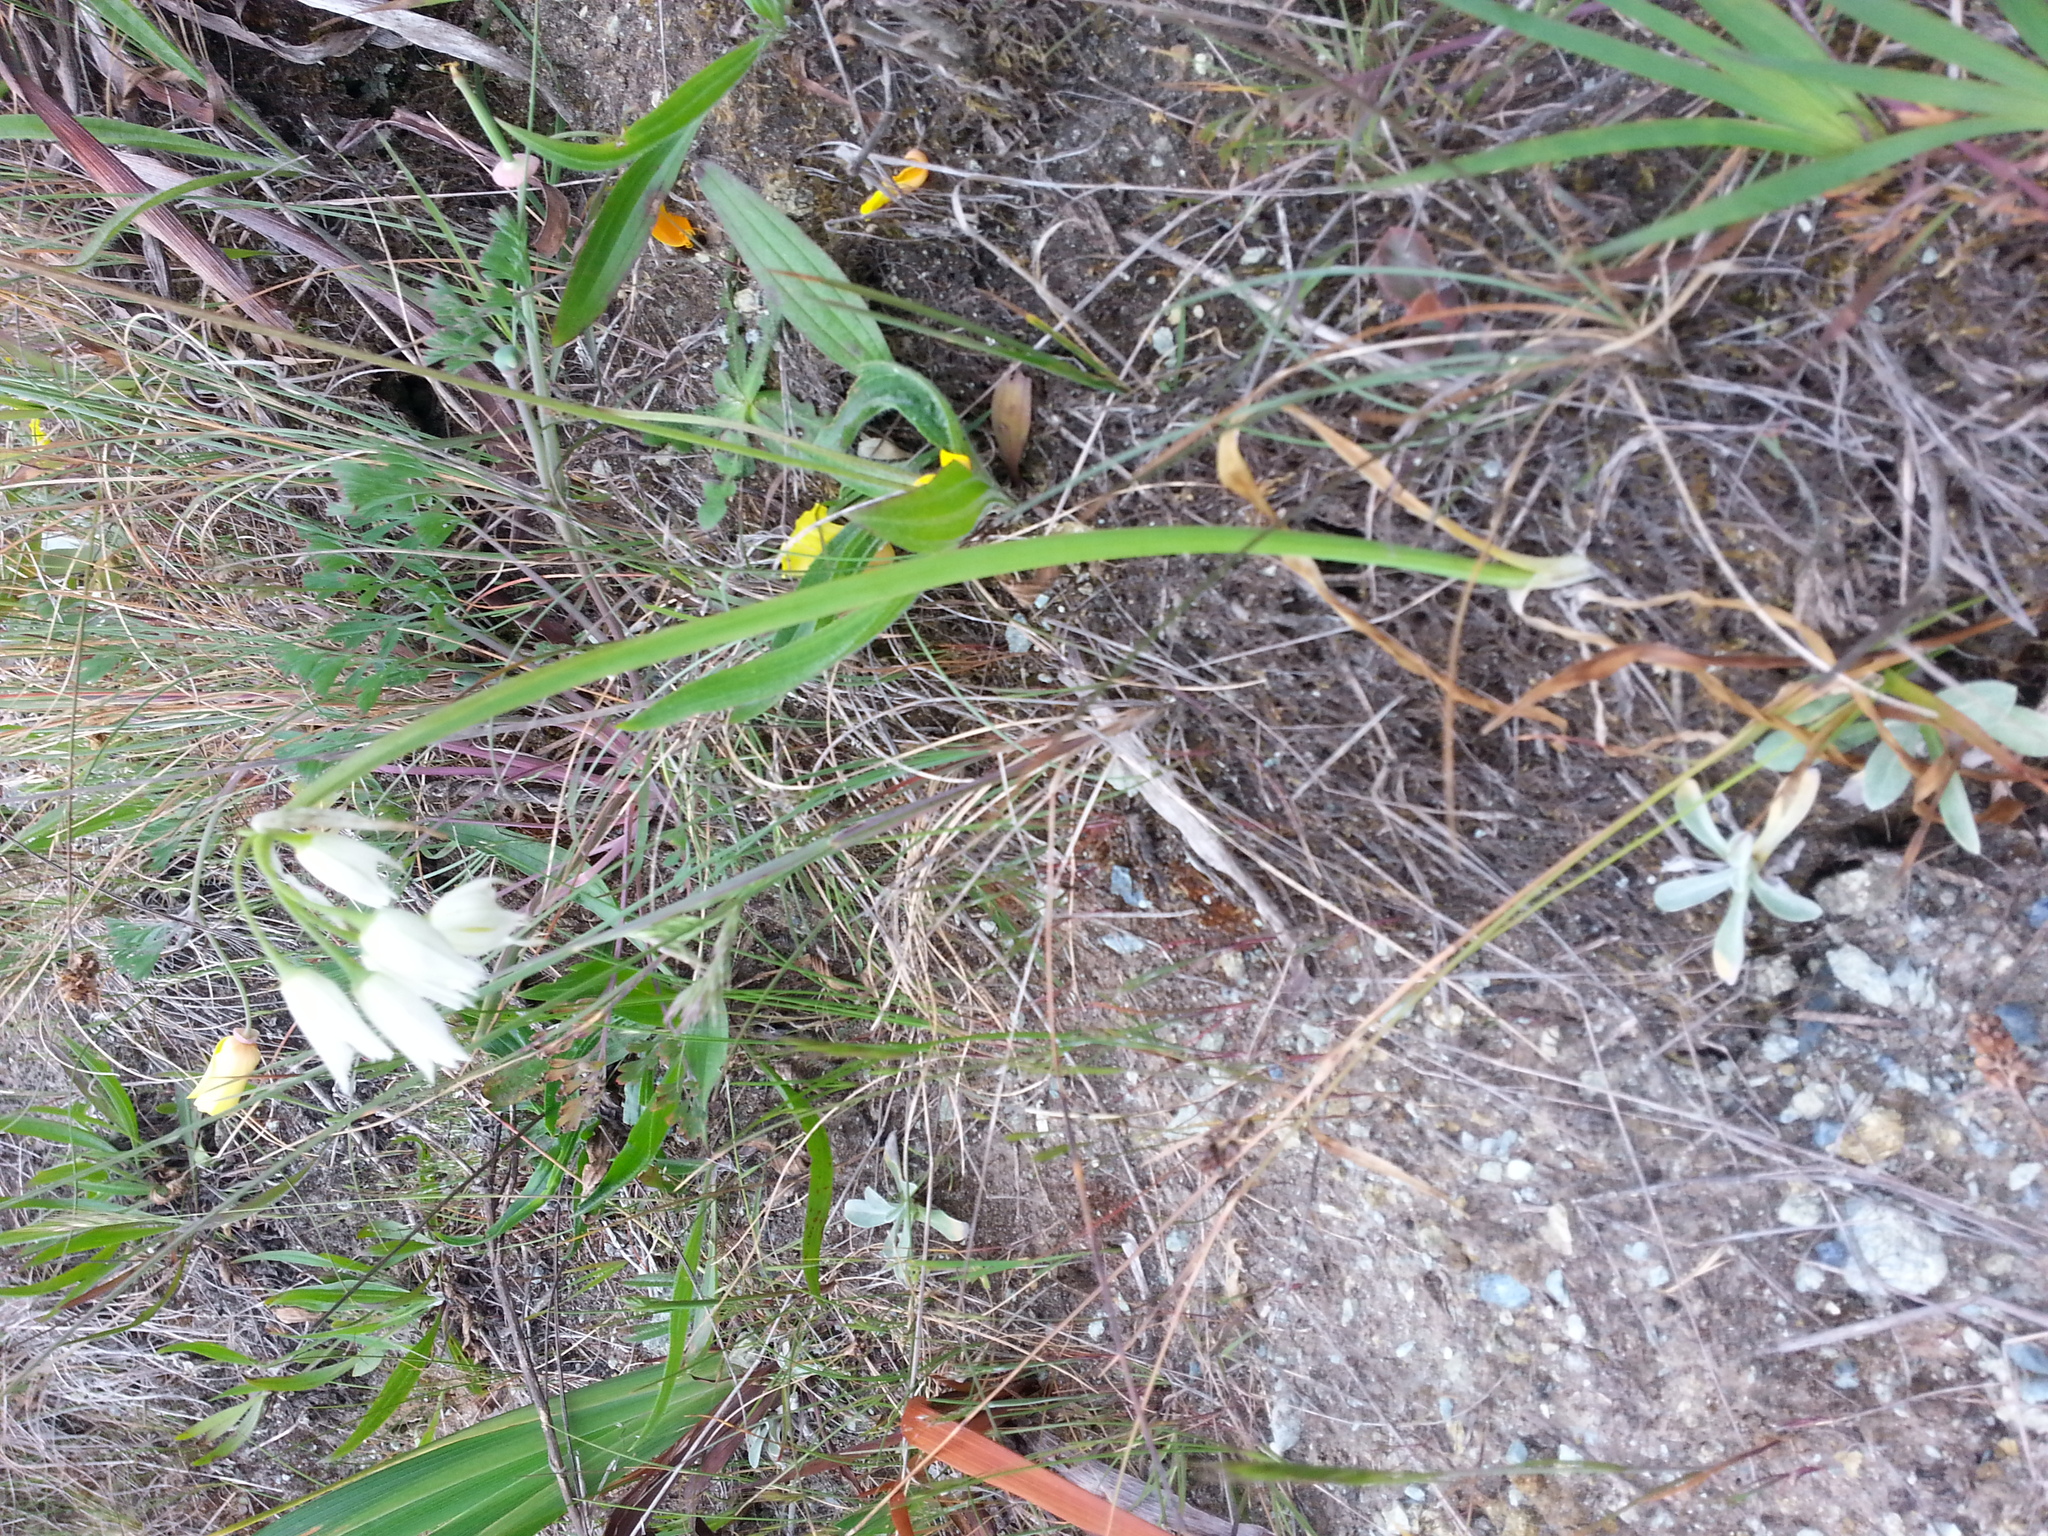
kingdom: Plantae
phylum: Tracheophyta
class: Liliopsida
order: Asparagales
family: Amaryllidaceae
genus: Allium
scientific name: Allium triquetrum
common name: Three-cornered garlic
